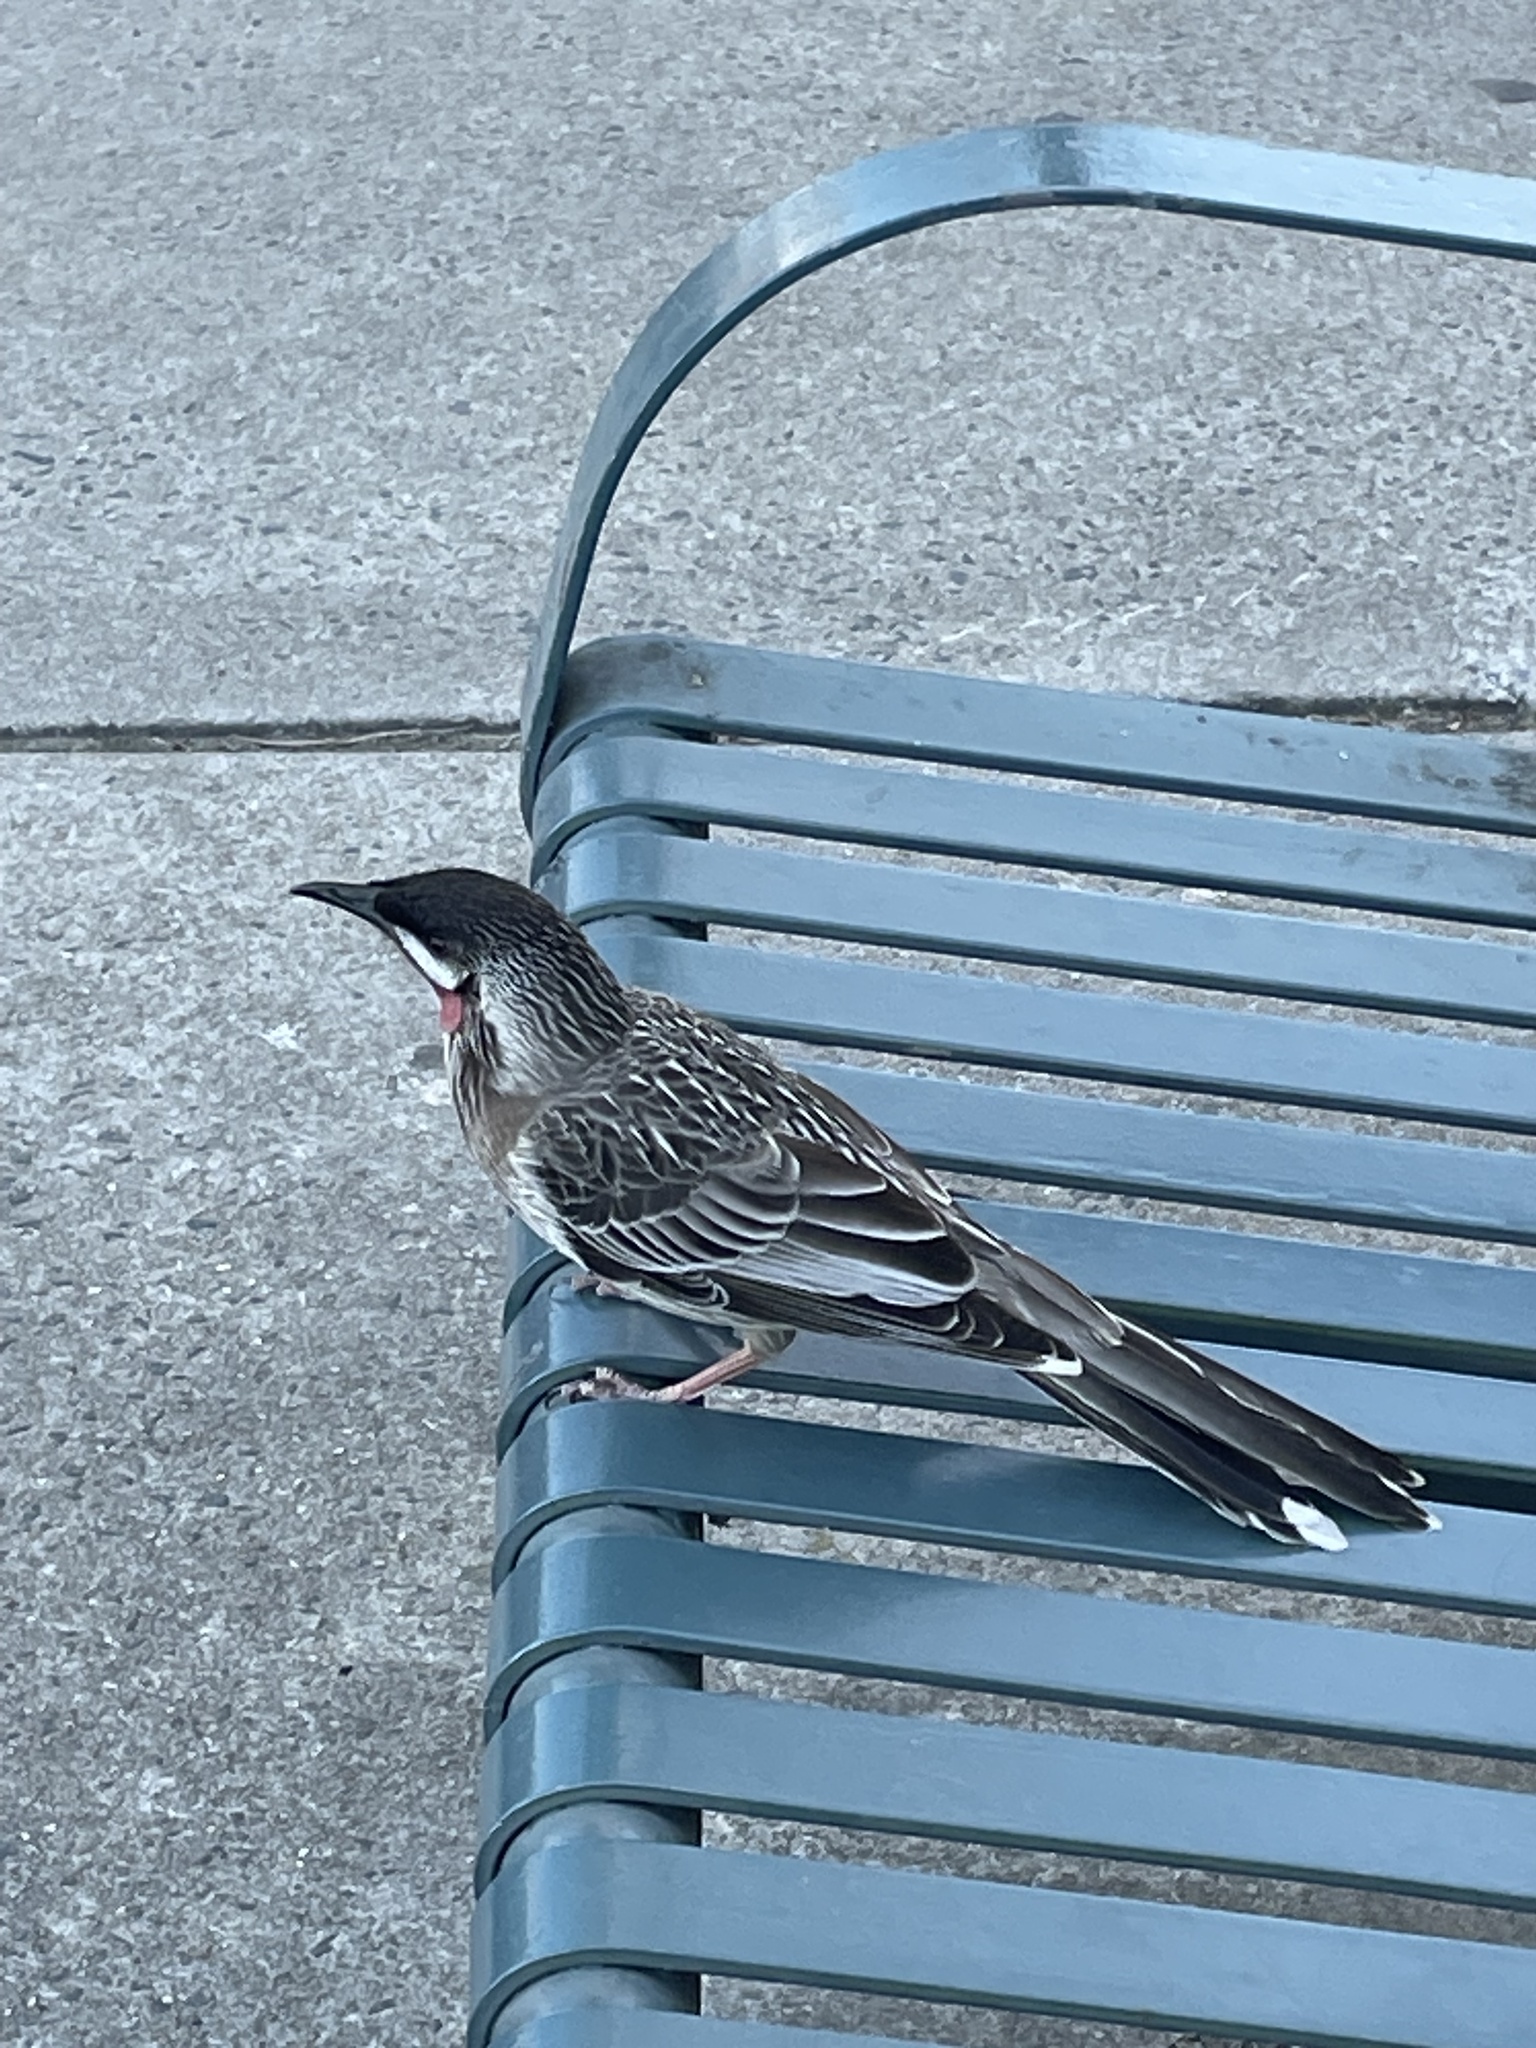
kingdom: Animalia
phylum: Chordata
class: Aves
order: Passeriformes
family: Meliphagidae
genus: Anthochaera
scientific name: Anthochaera carunculata
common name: Red wattlebird
